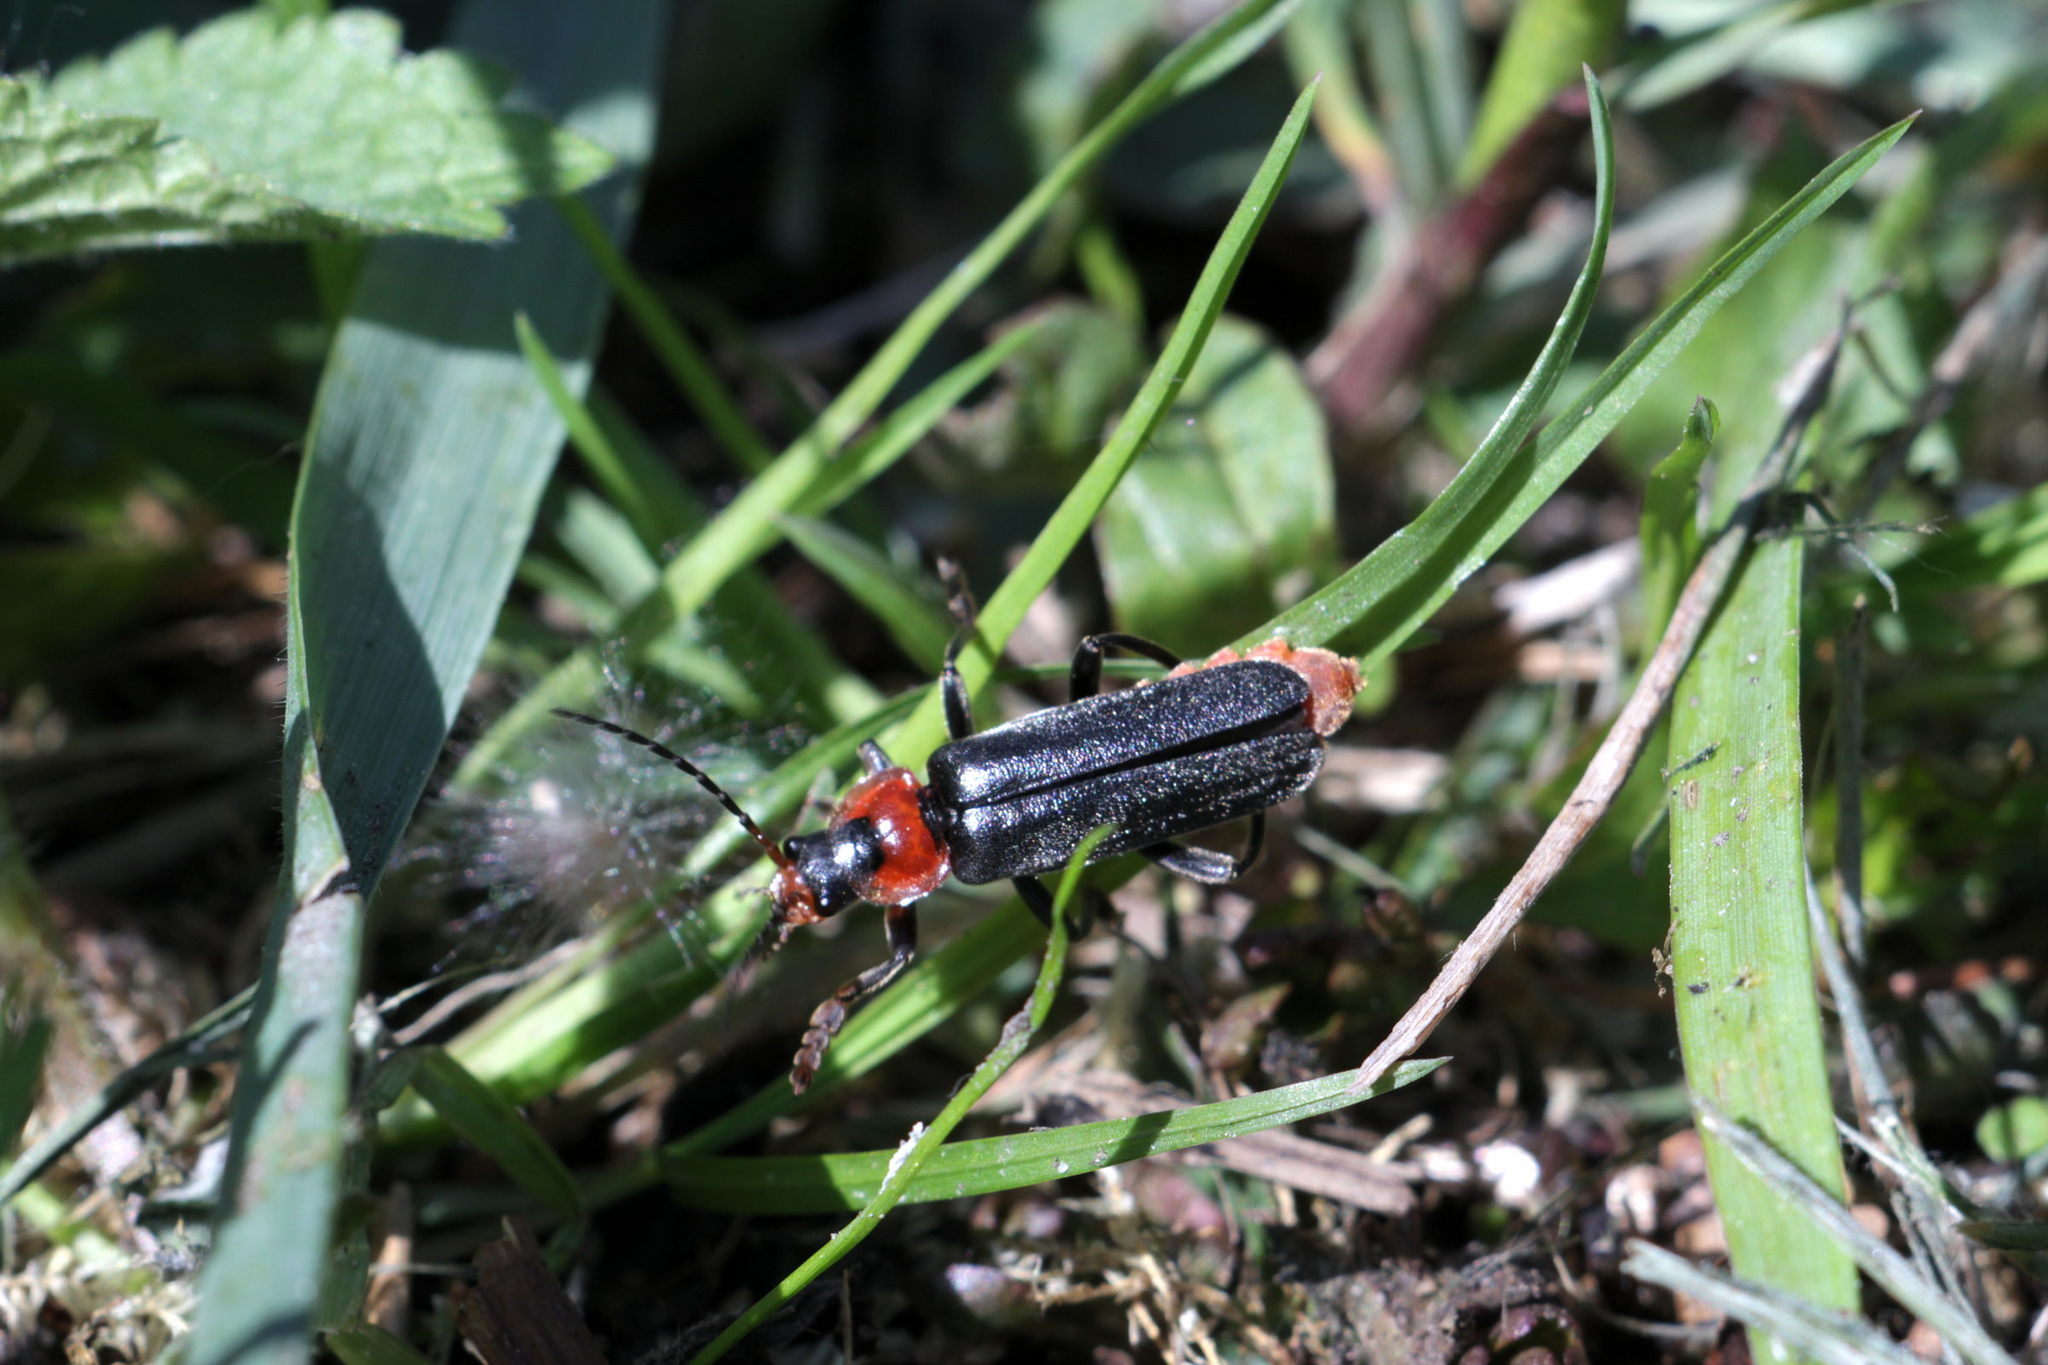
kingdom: Animalia
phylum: Arthropoda
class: Insecta
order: Coleoptera
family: Cantharidae
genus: Cantharis
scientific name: Cantharis fusca
